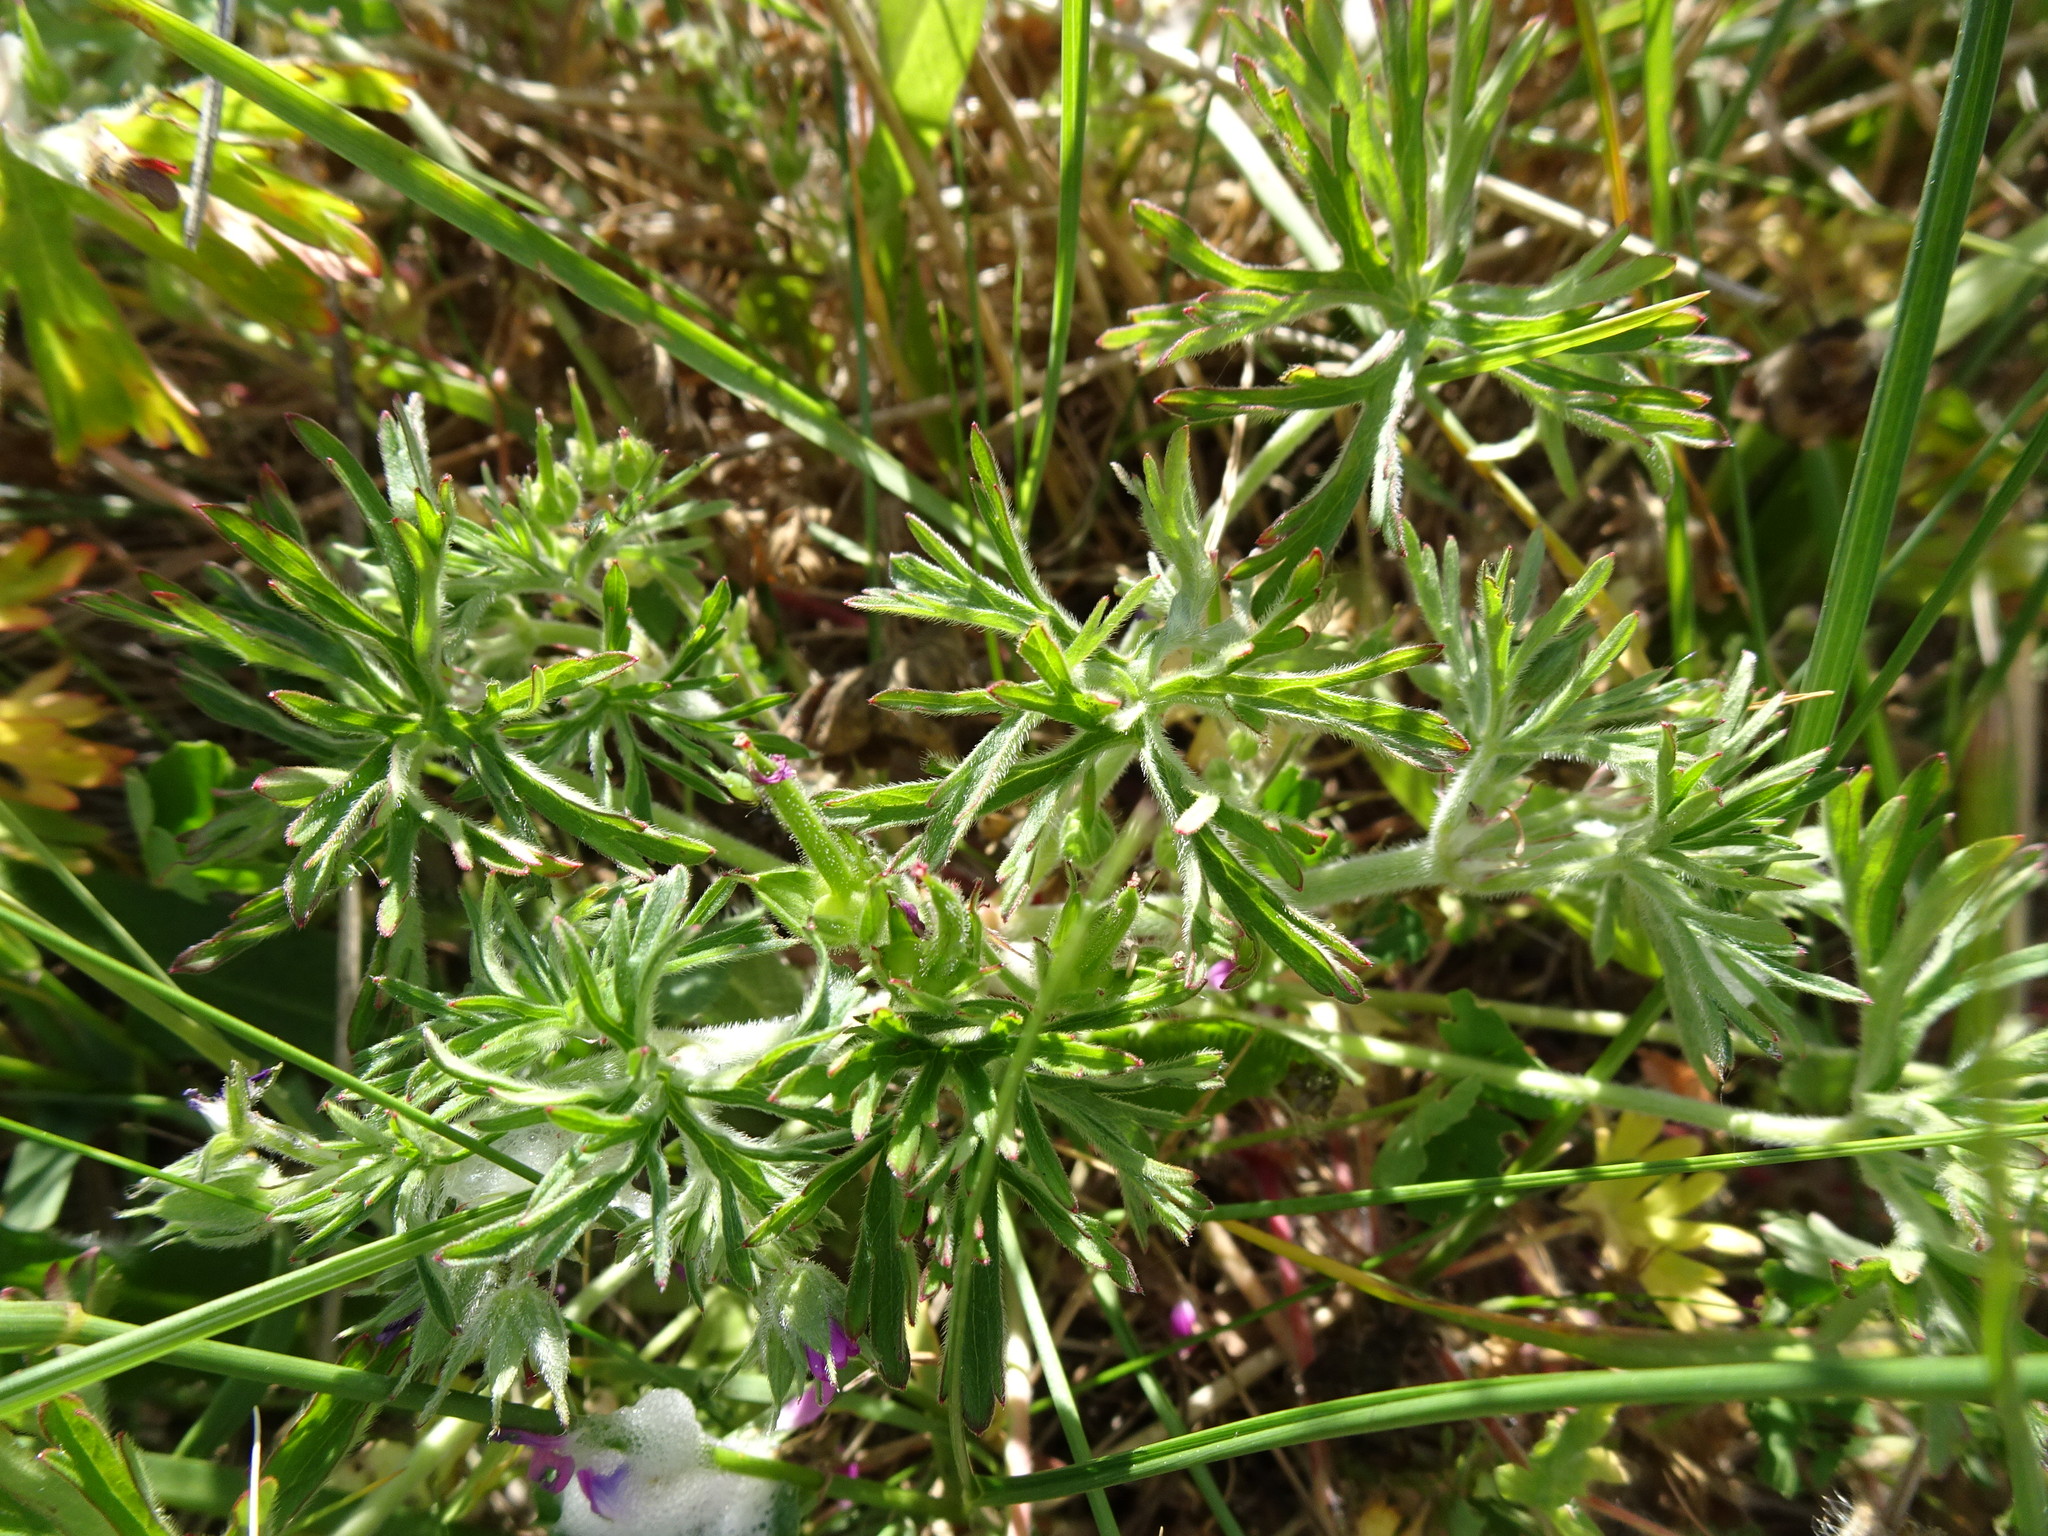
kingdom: Plantae
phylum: Tracheophyta
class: Magnoliopsida
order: Geraniales
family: Geraniaceae
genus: Geranium
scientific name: Geranium dissectum
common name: Cut-leaved crane's-bill
